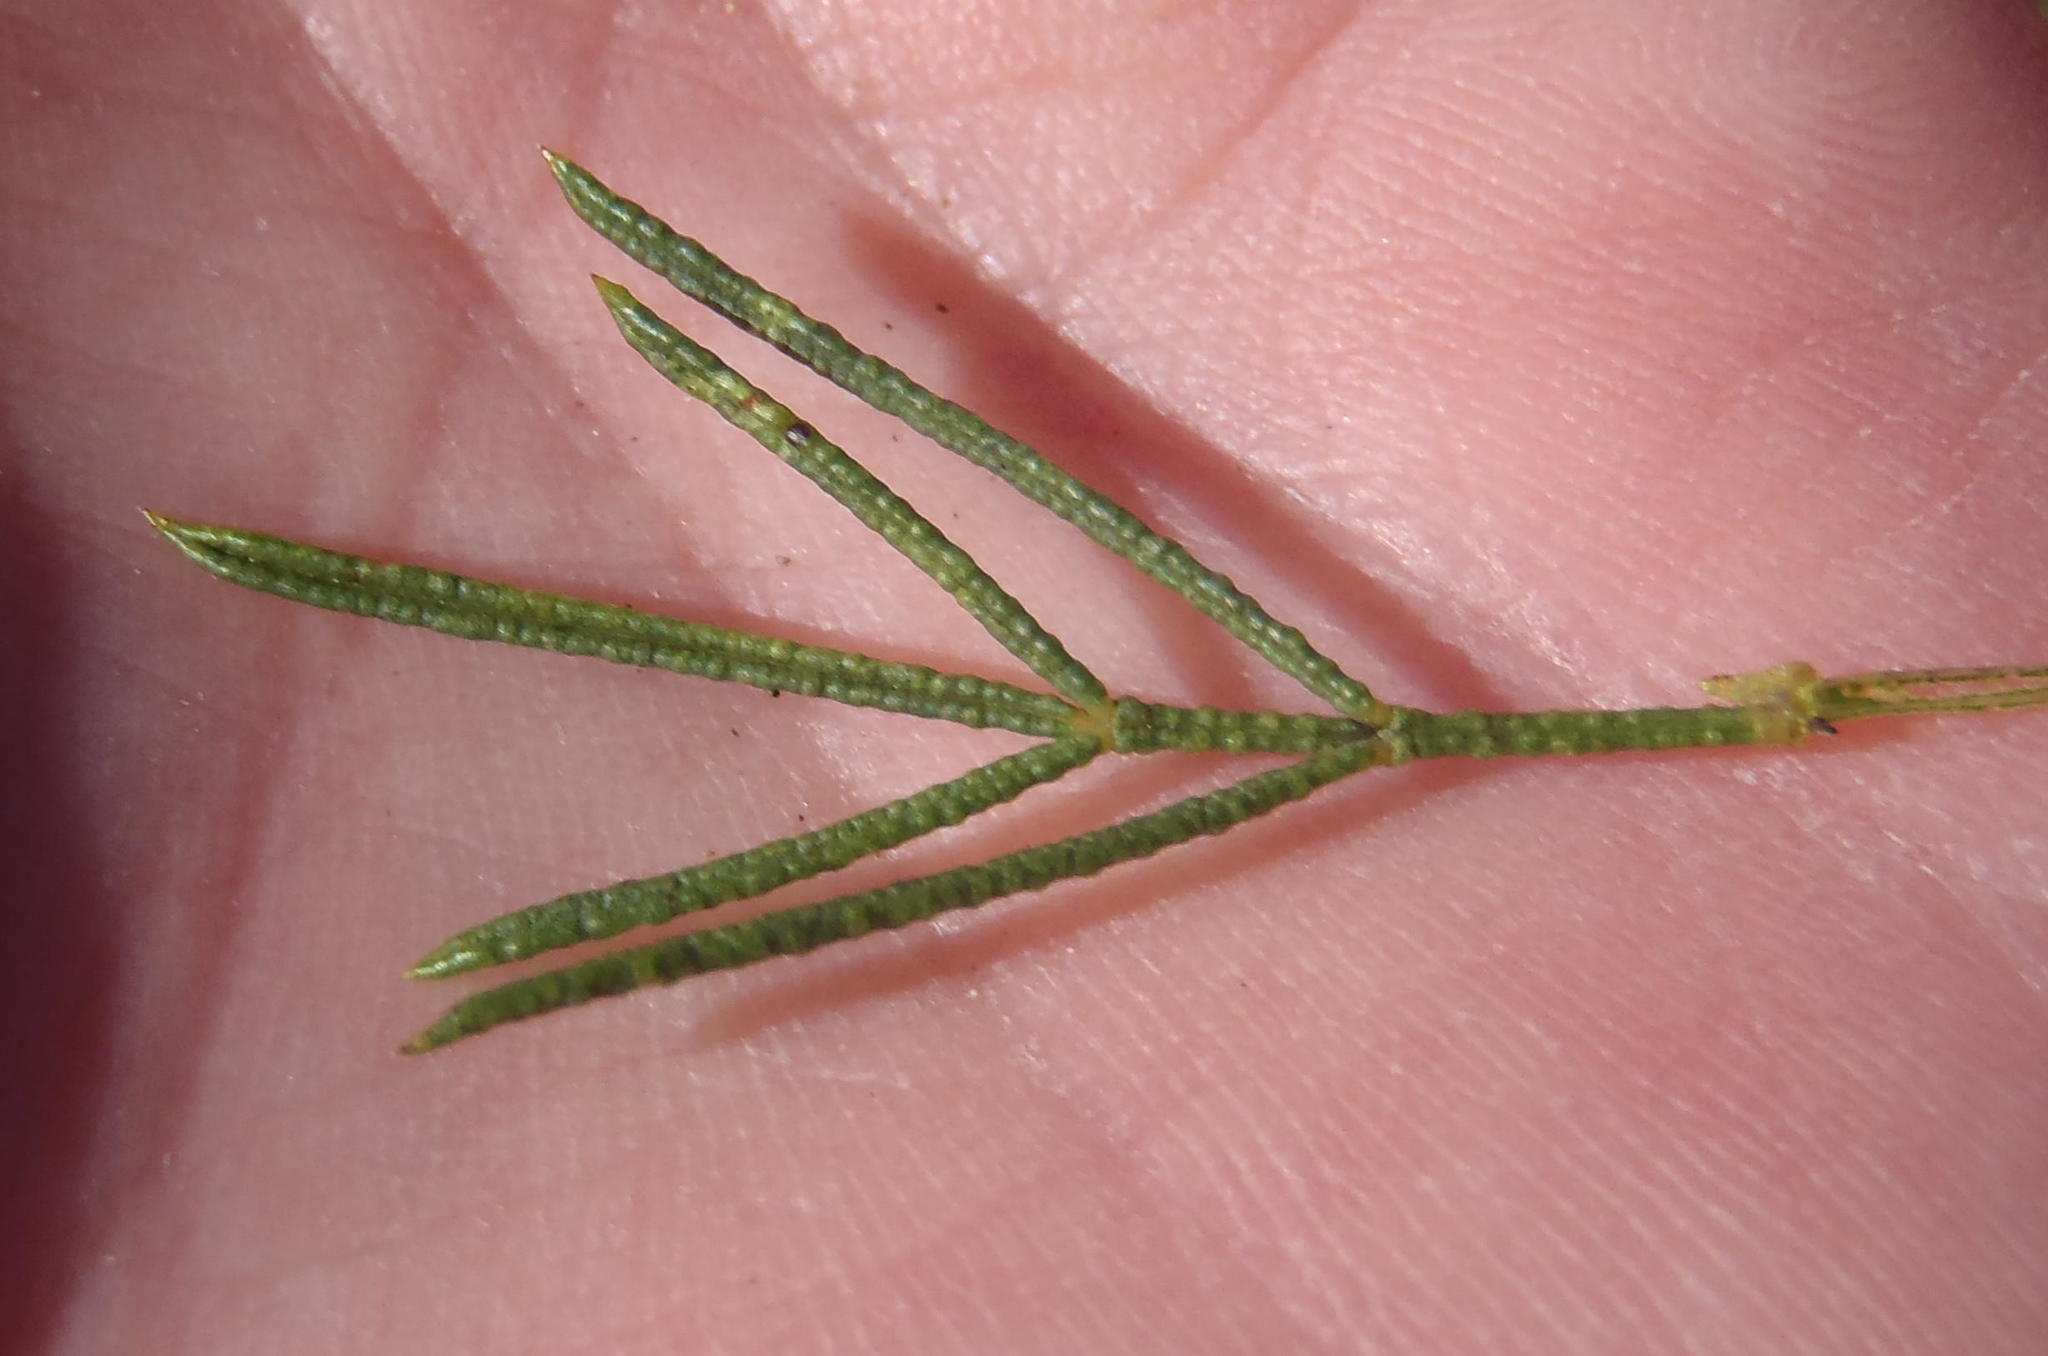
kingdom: Plantae
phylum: Tracheophyta
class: Magnoliopsida
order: Fabales
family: Fabaceae
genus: Psoralea
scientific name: Psoralea laevigata
